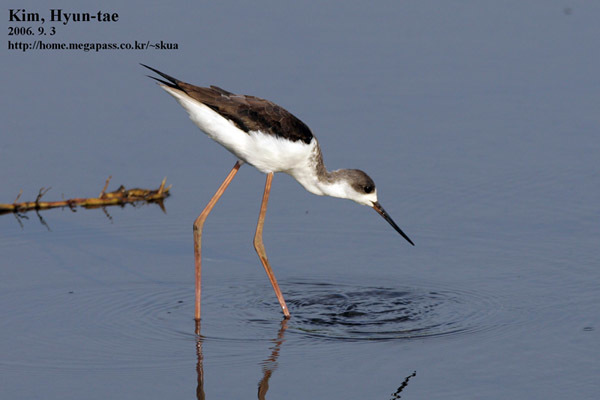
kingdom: Animalia
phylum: Chordata
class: Aves
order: Charadriiformes
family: Recurvirostridae
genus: Himantopus
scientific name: Himantopus himantopus
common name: Black-winged stilt
